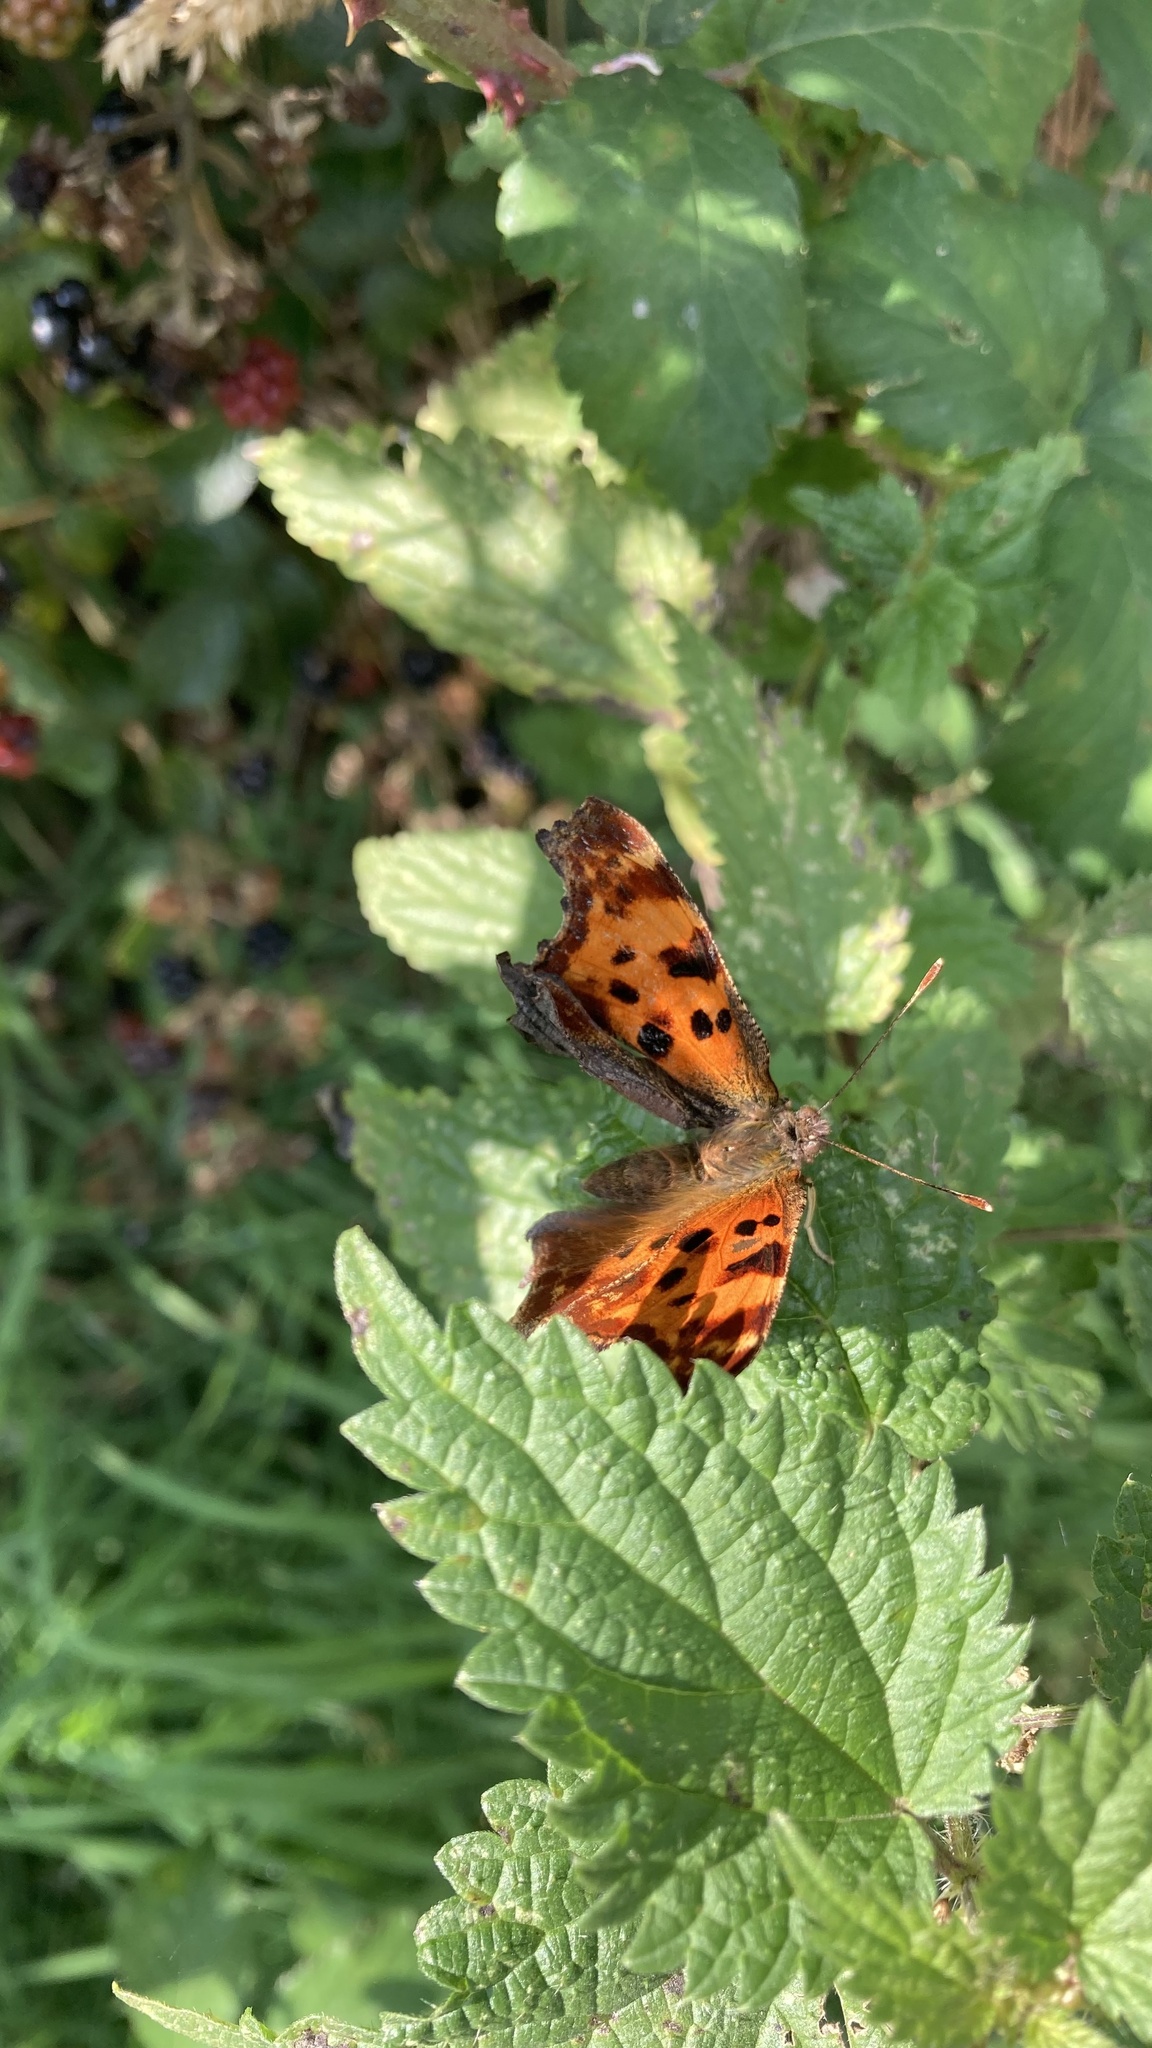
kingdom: Animalia
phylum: Arthropoda
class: Insecta
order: Lepidoptera
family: Nymphalidae
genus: Polygonia
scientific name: Polygonia c-album
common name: Comma
